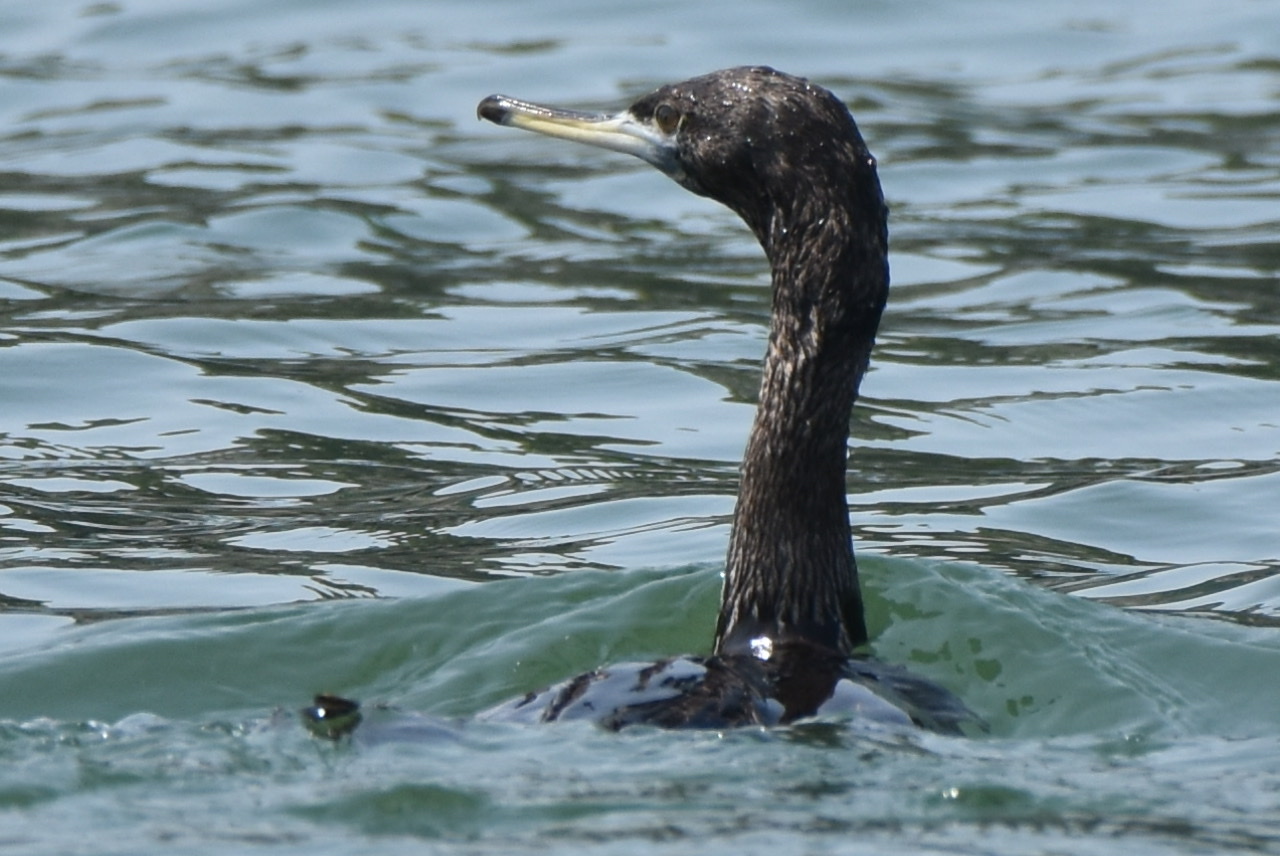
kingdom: Animalia
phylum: Chordata
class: Aves
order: Suliformes
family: Phalacrocoracidae
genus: Phalacrocorax
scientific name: Phalacrocorax urile
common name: Red-faced cormorant
